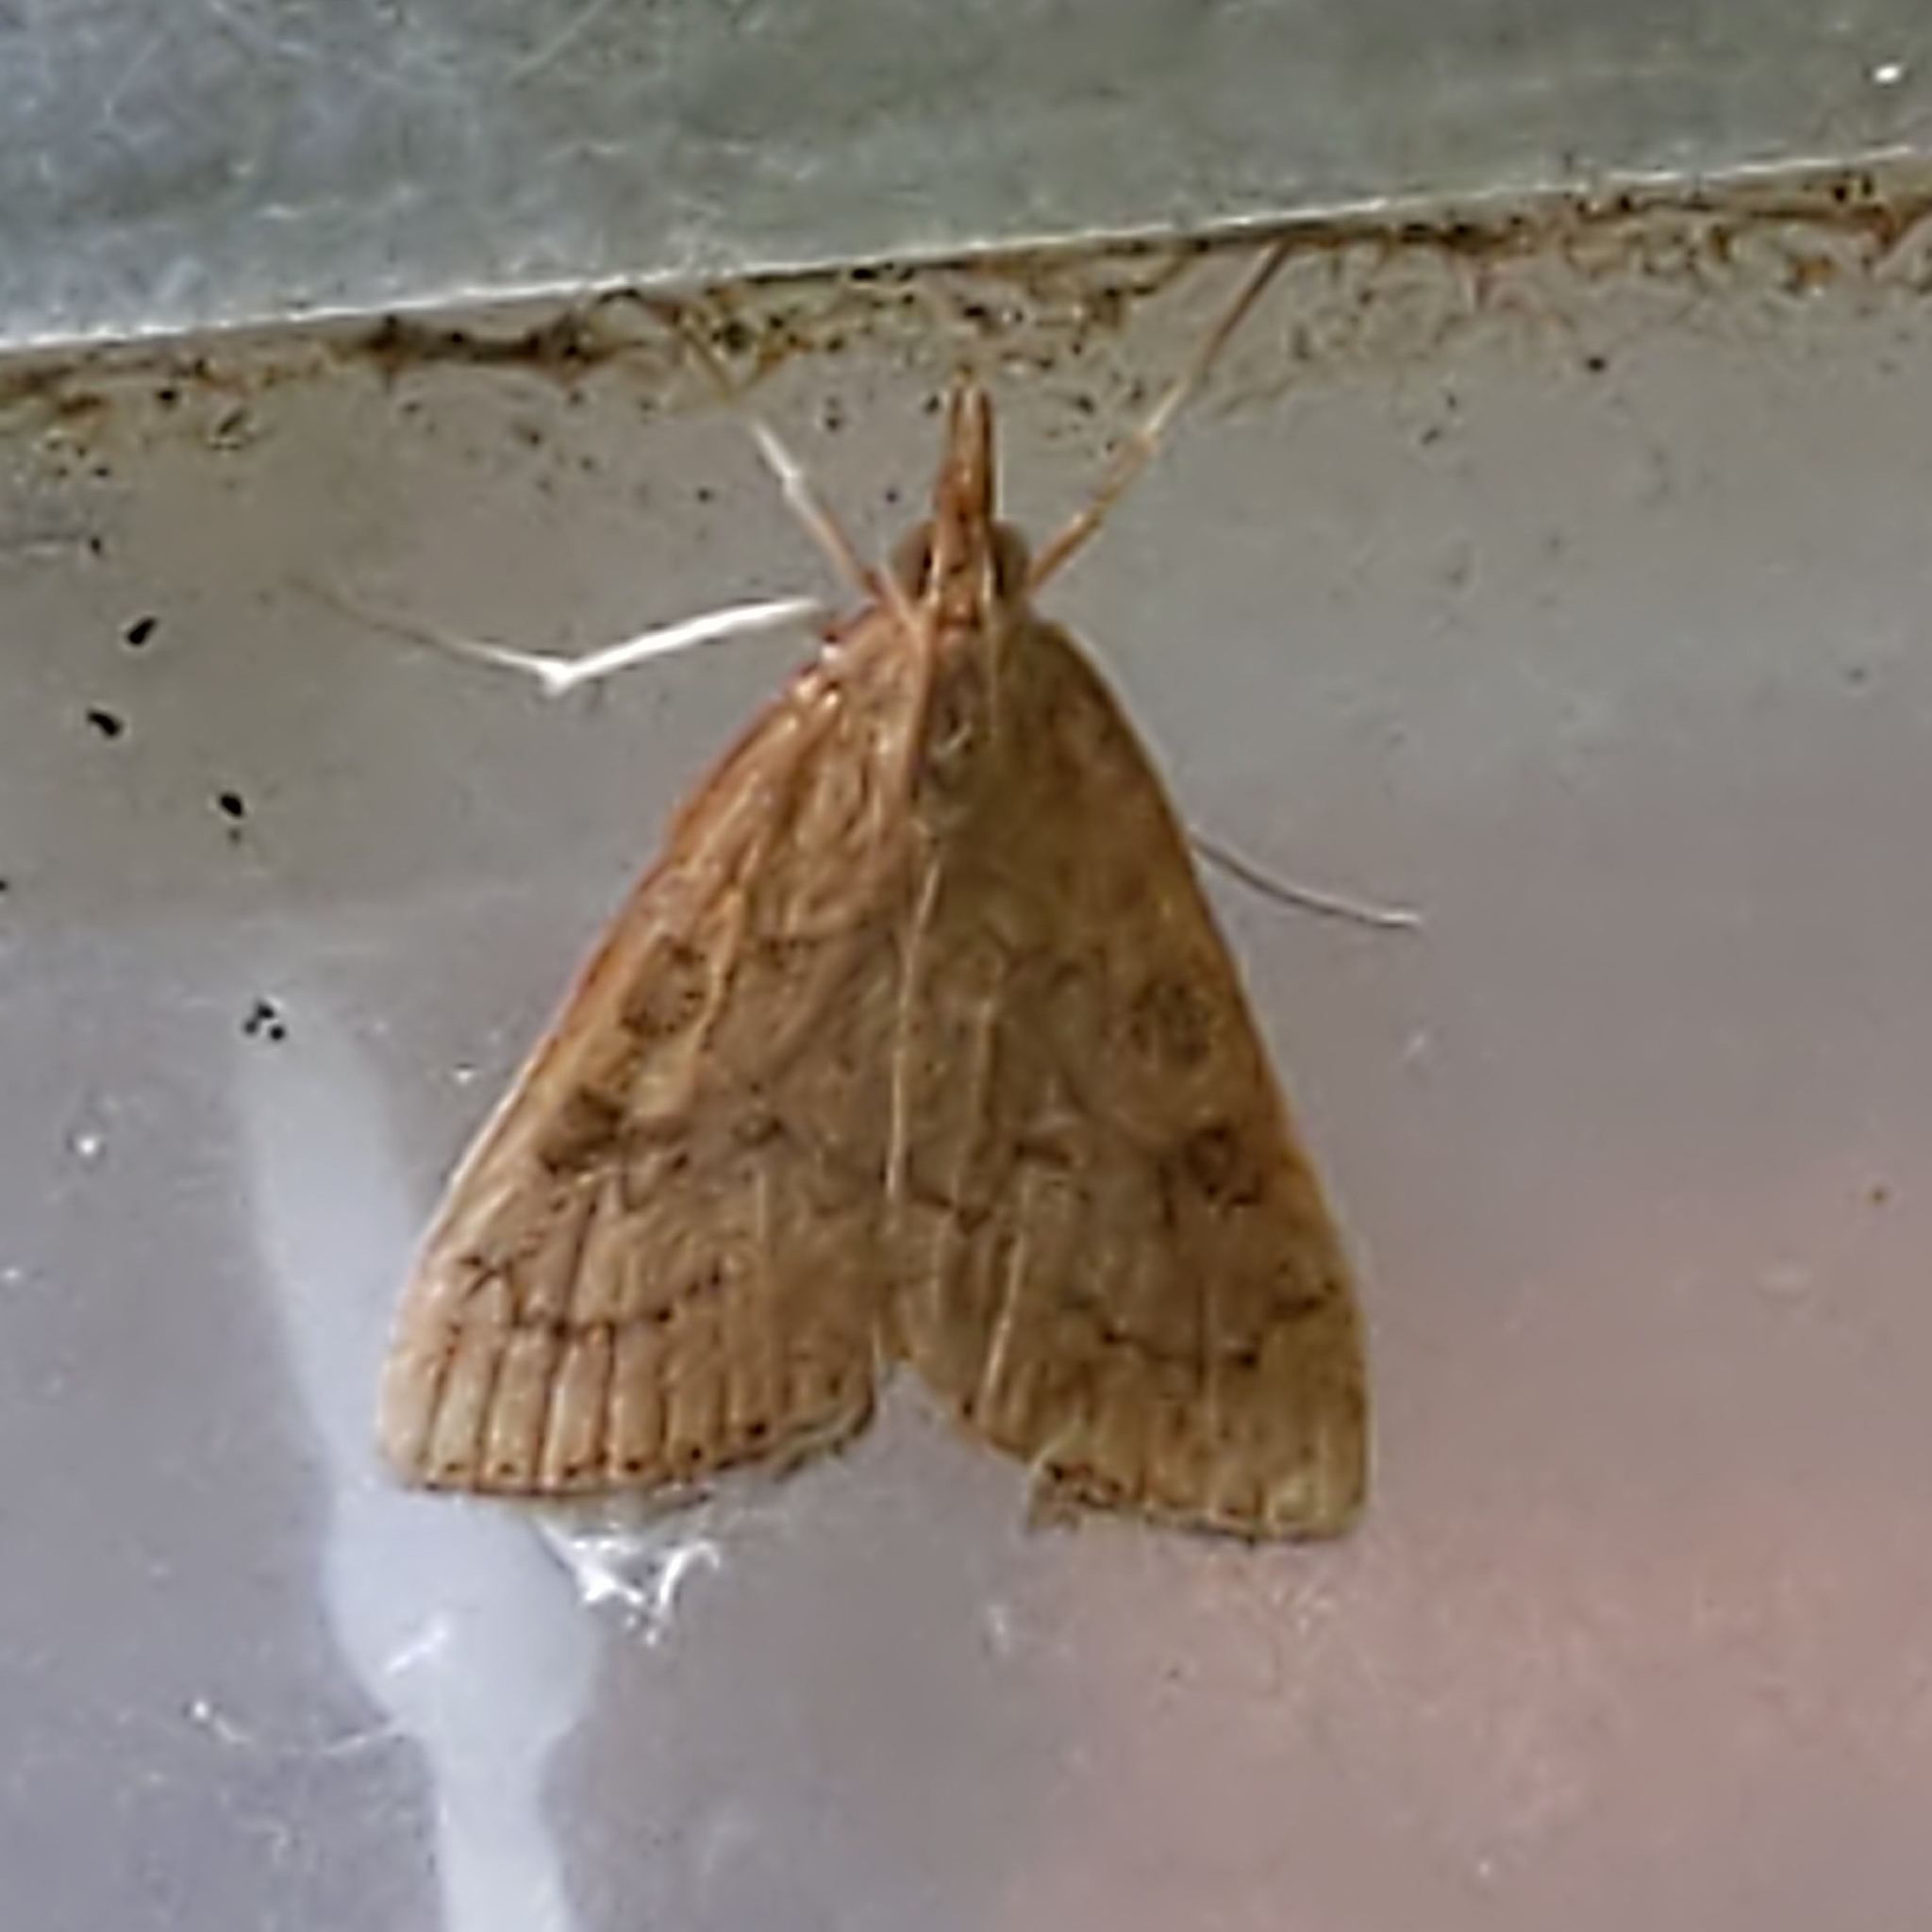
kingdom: Animalia
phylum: Arthropoda
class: Insecta
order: Lepidoptera
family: Crambidae
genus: Udea
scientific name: Udea rubigalis
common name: Celery leaftier moth
